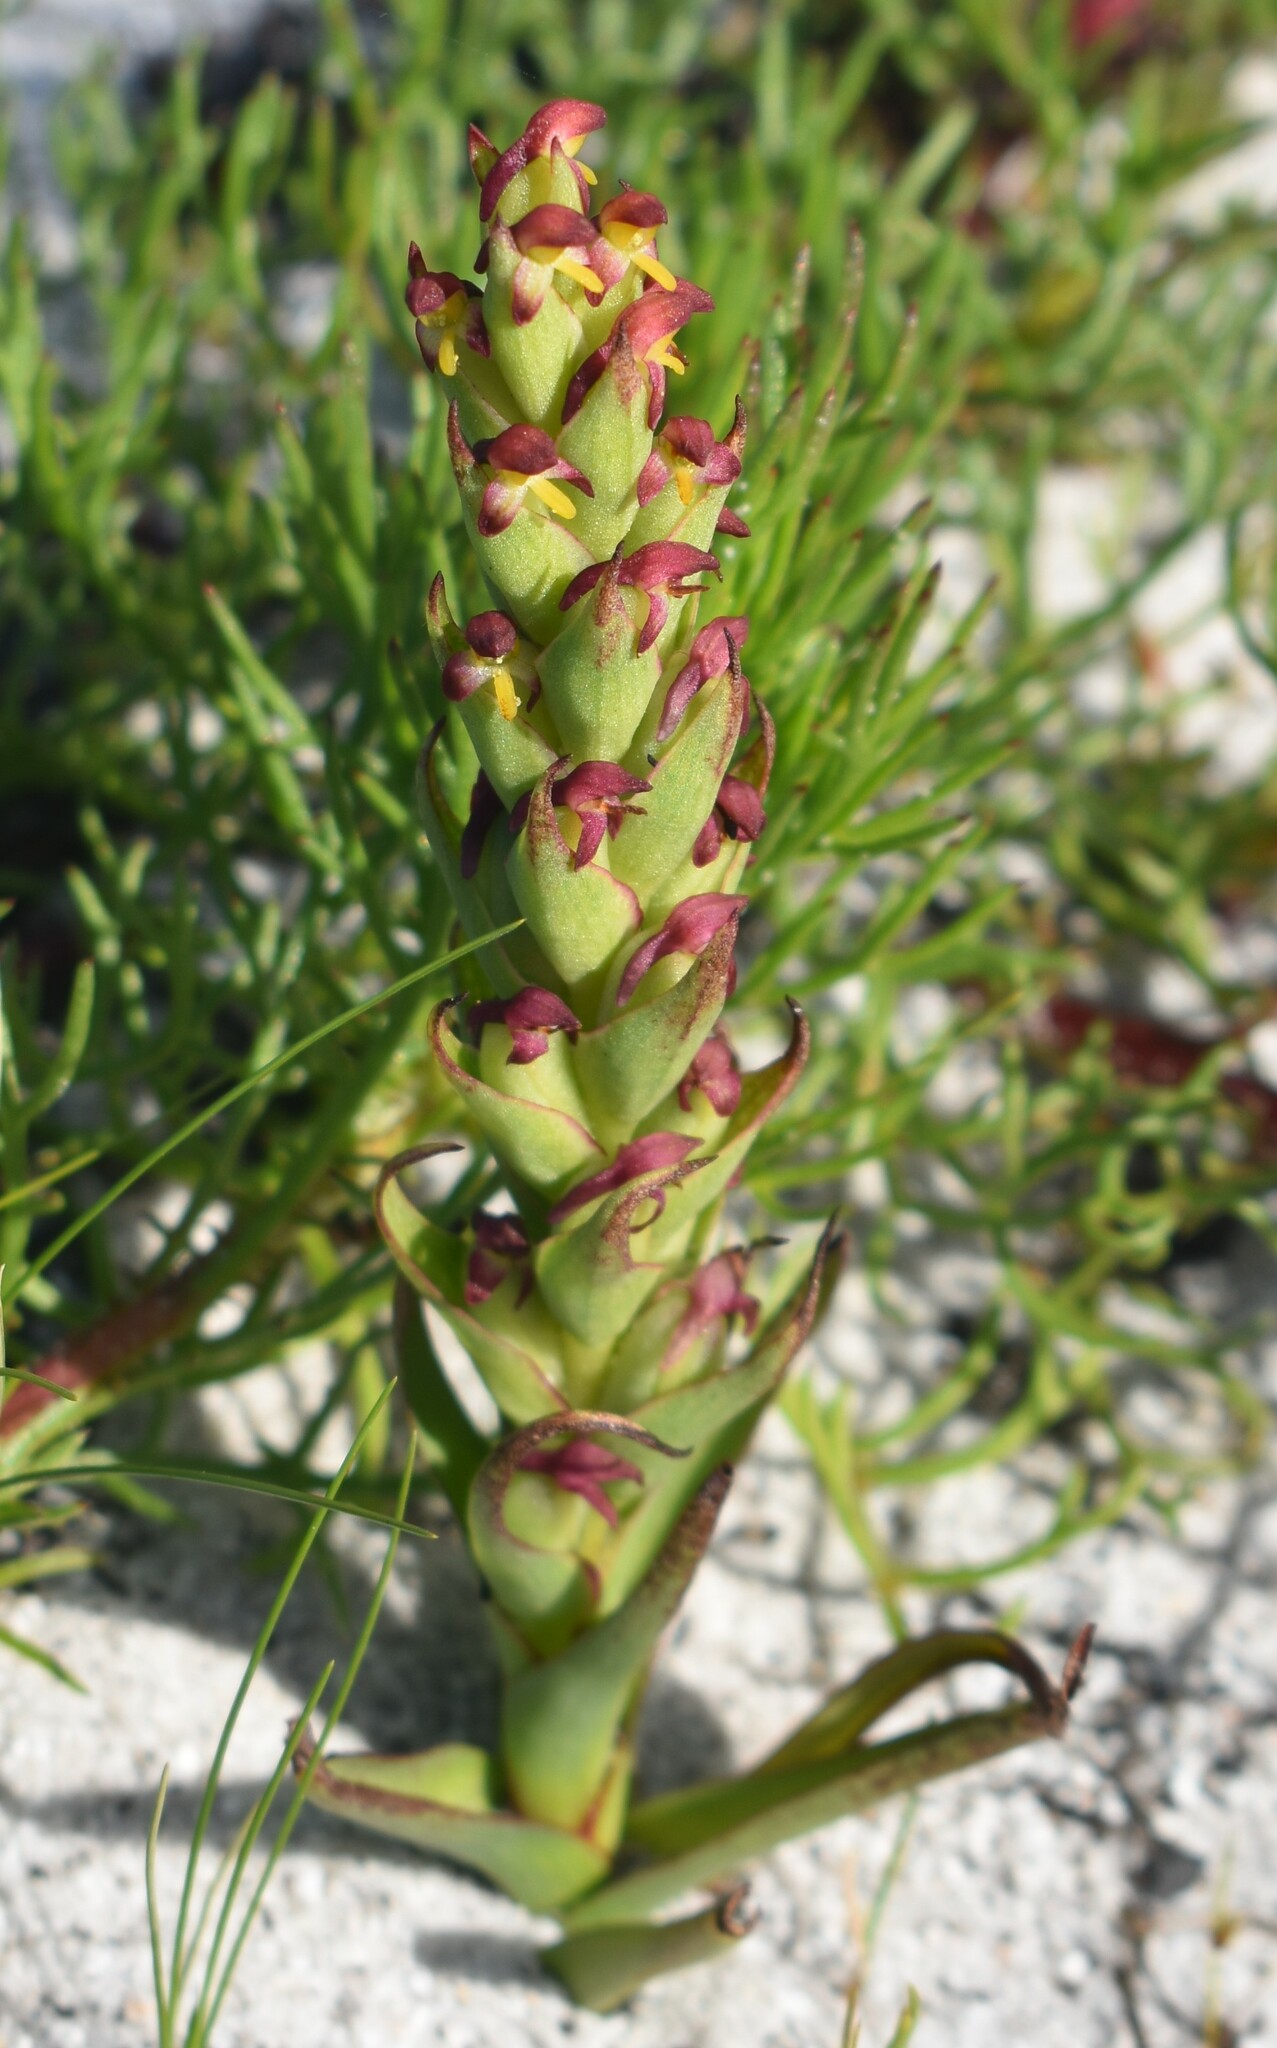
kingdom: Plantae
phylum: Tracheophyta
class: Liliopsida
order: Asparagales
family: Orchidaceae
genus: Disa
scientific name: Disa bracteata
